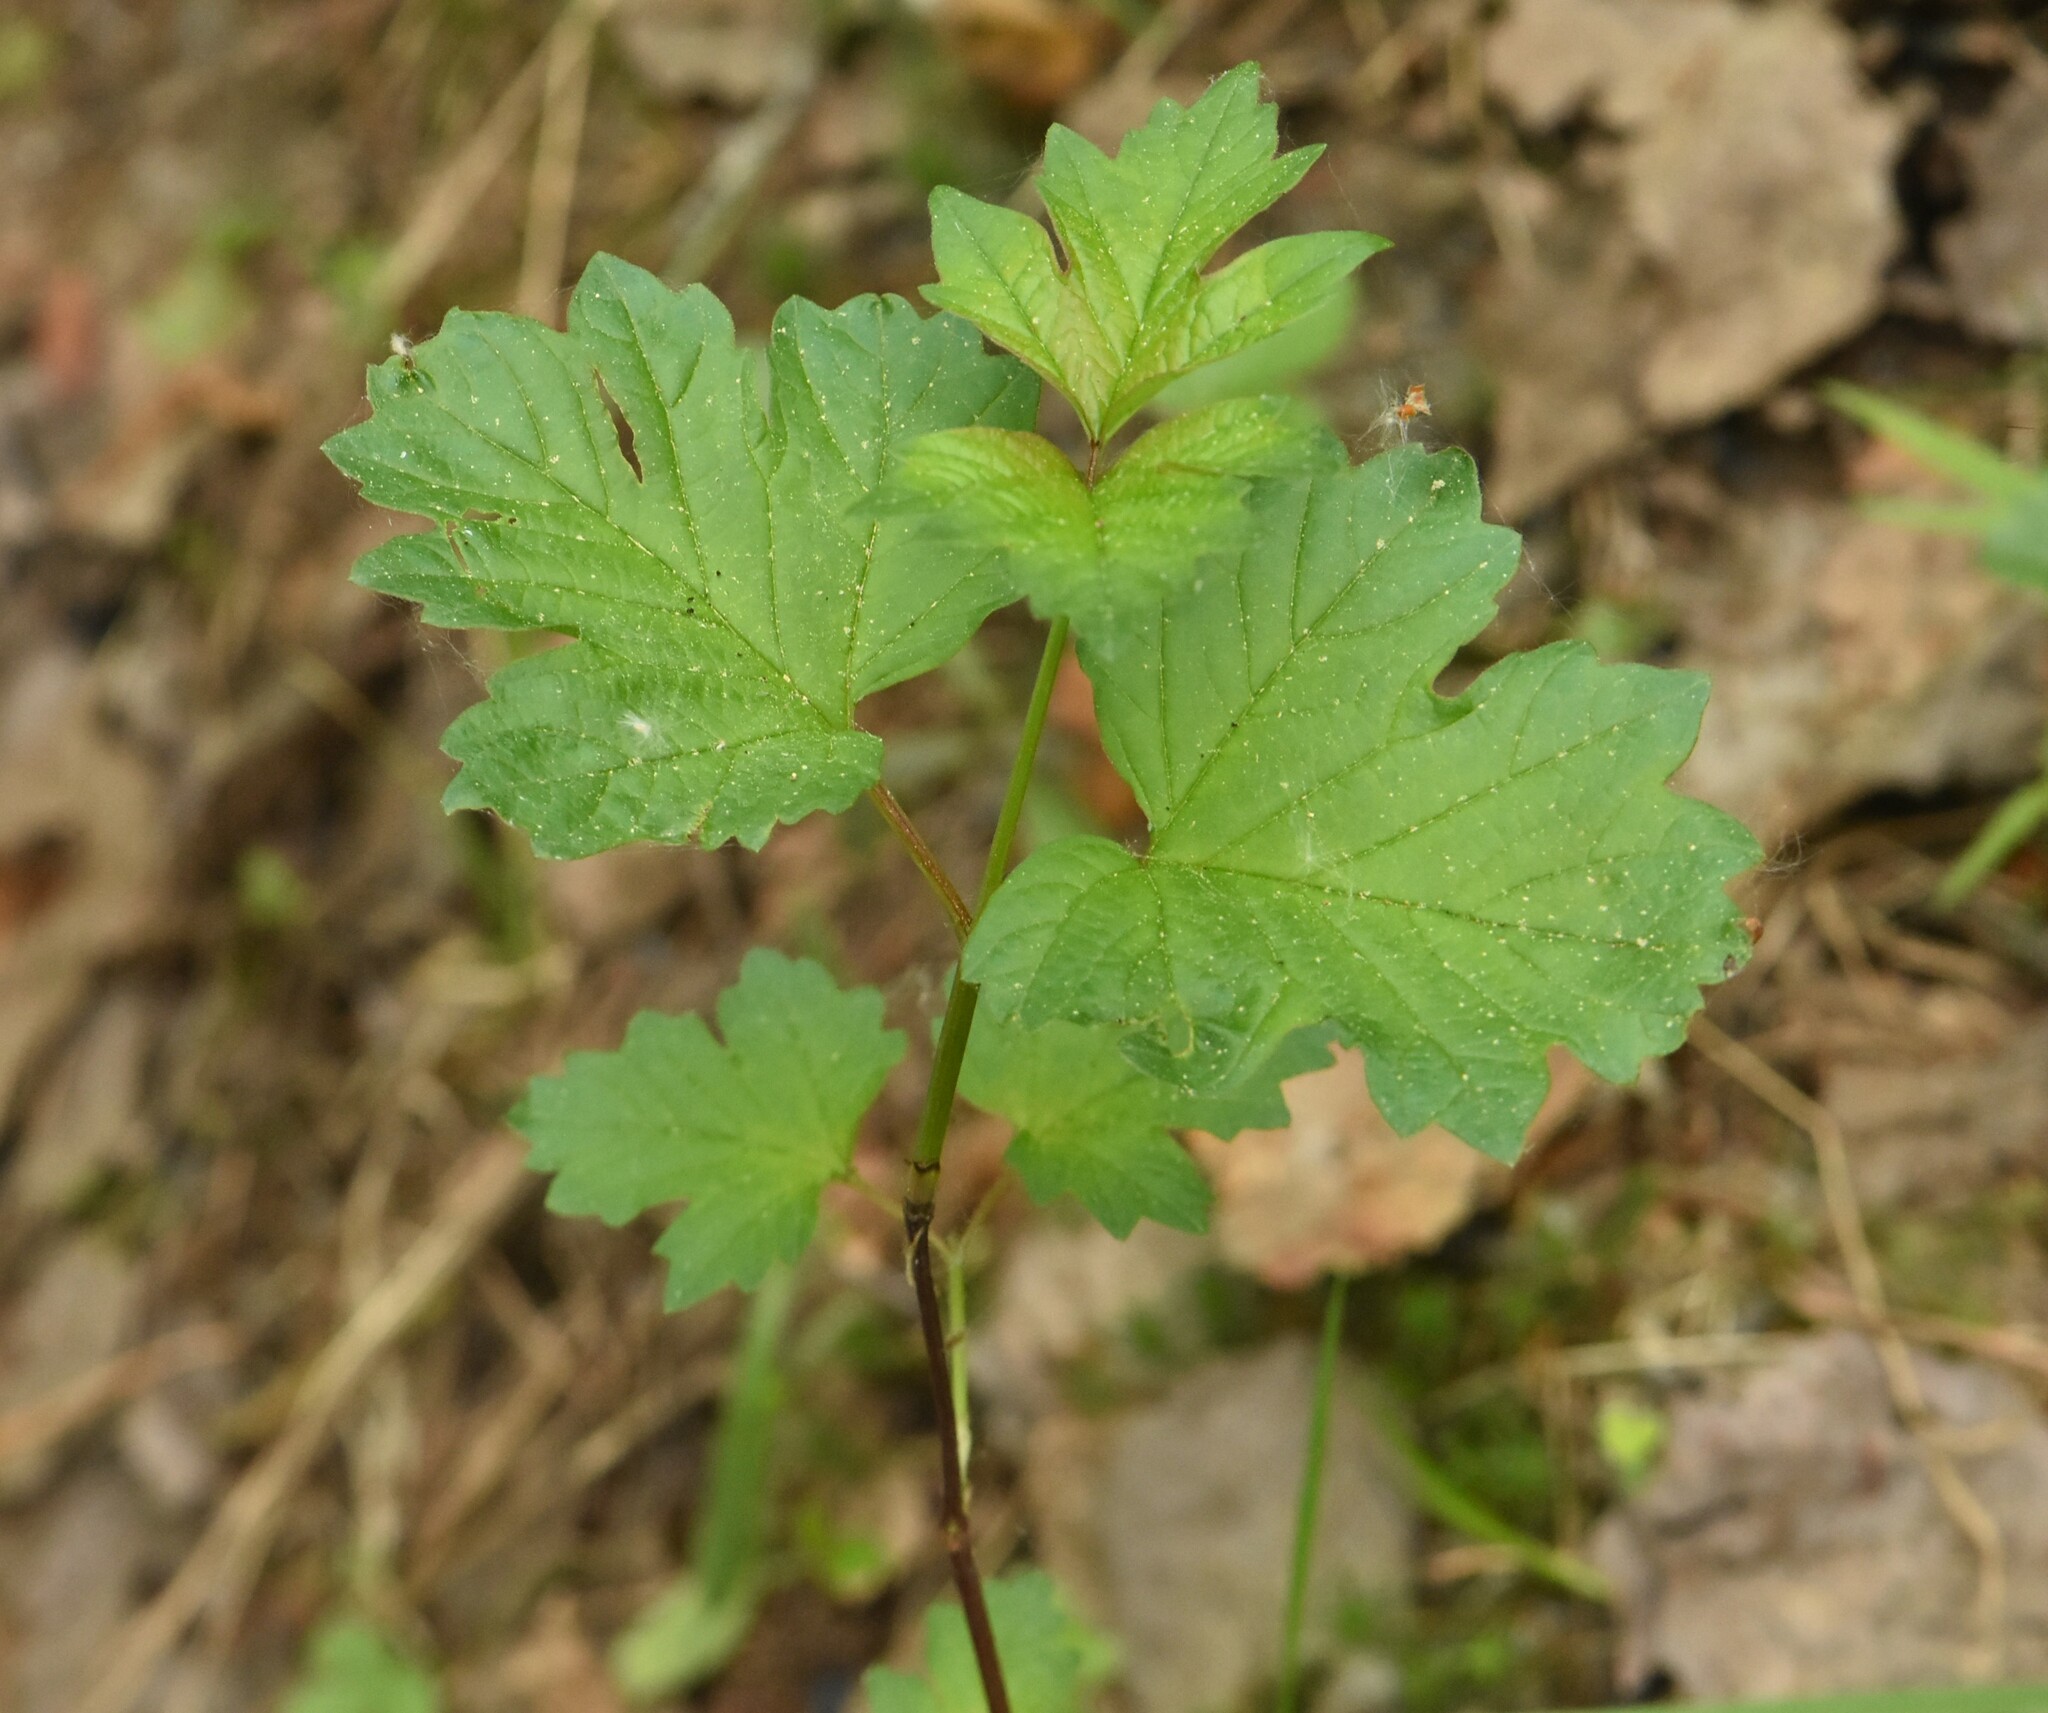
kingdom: Plantae
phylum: Tracheophyta
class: Magnoliopsida
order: Dipsacales
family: Viburnaceae
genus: Viburnum
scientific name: Viburnum opulus
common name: Guelder-rose
